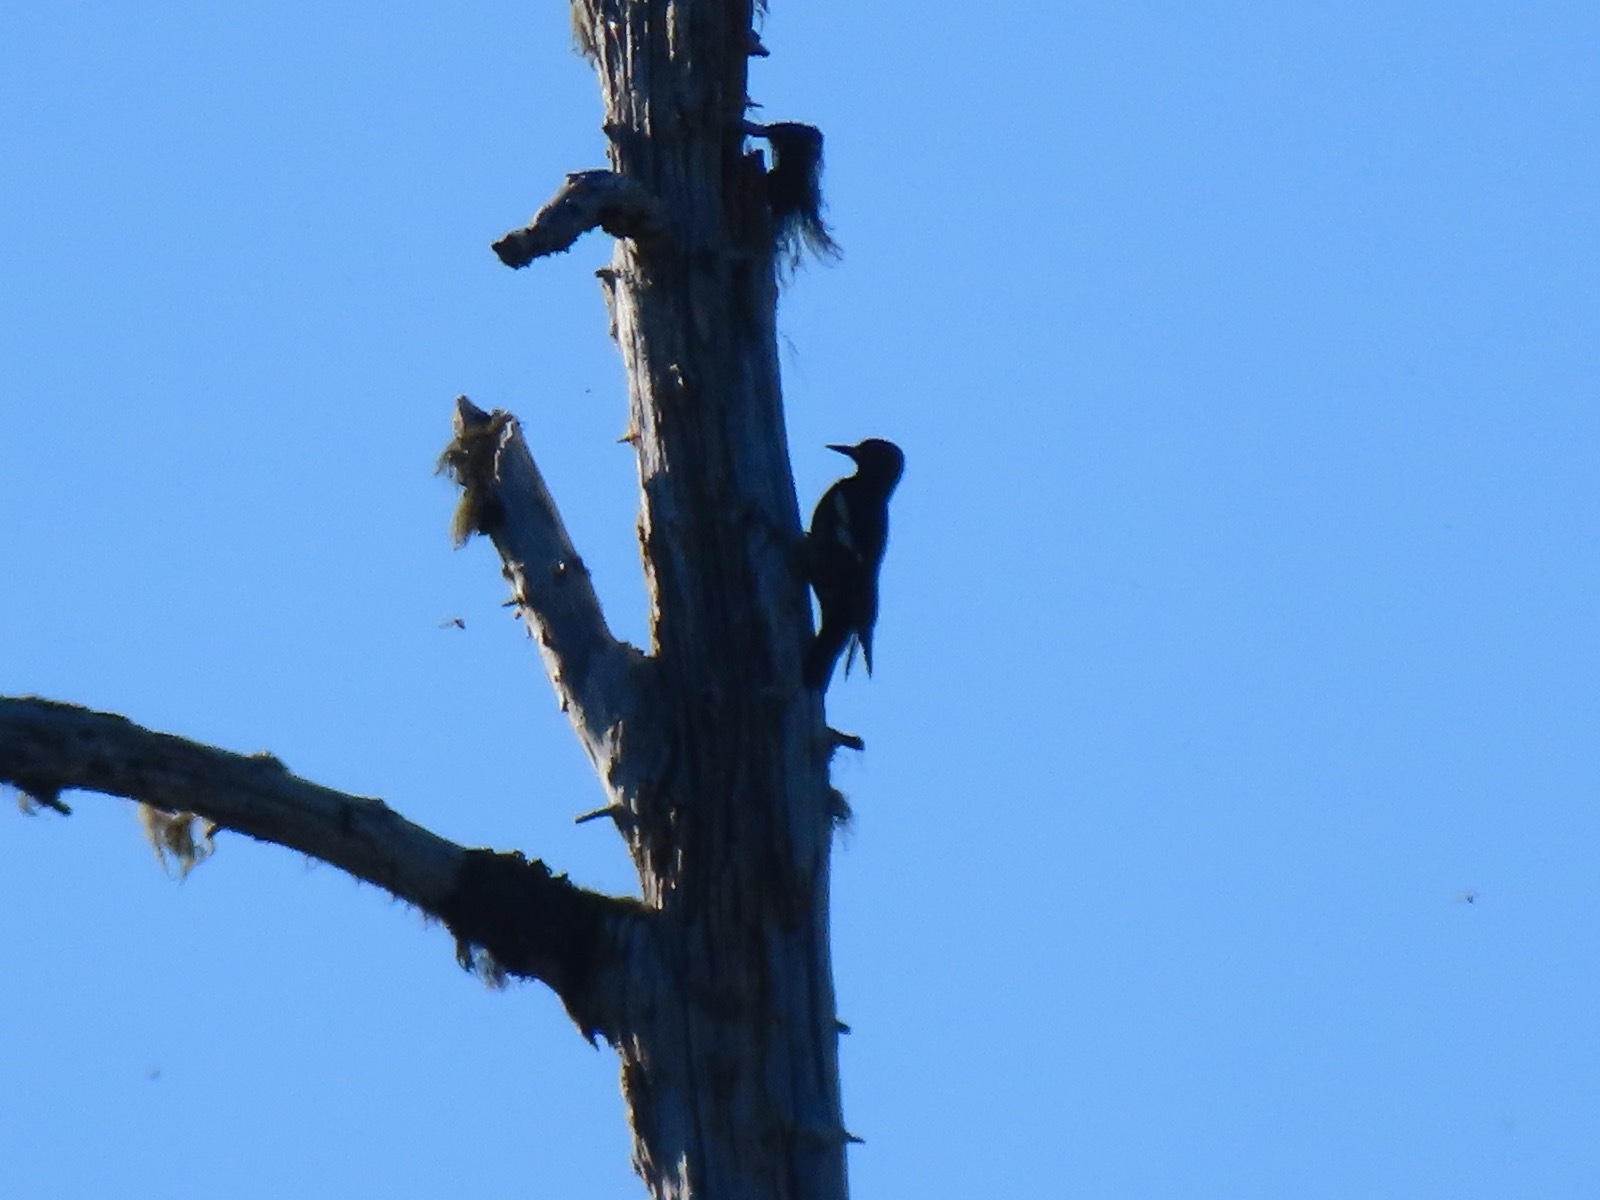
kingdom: Animalia
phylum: Chordata
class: Aves
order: Piciformes
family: Picidae
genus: Sphyrapicus
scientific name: Sphyrapicus ruber
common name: Red-breasted sapsucker
